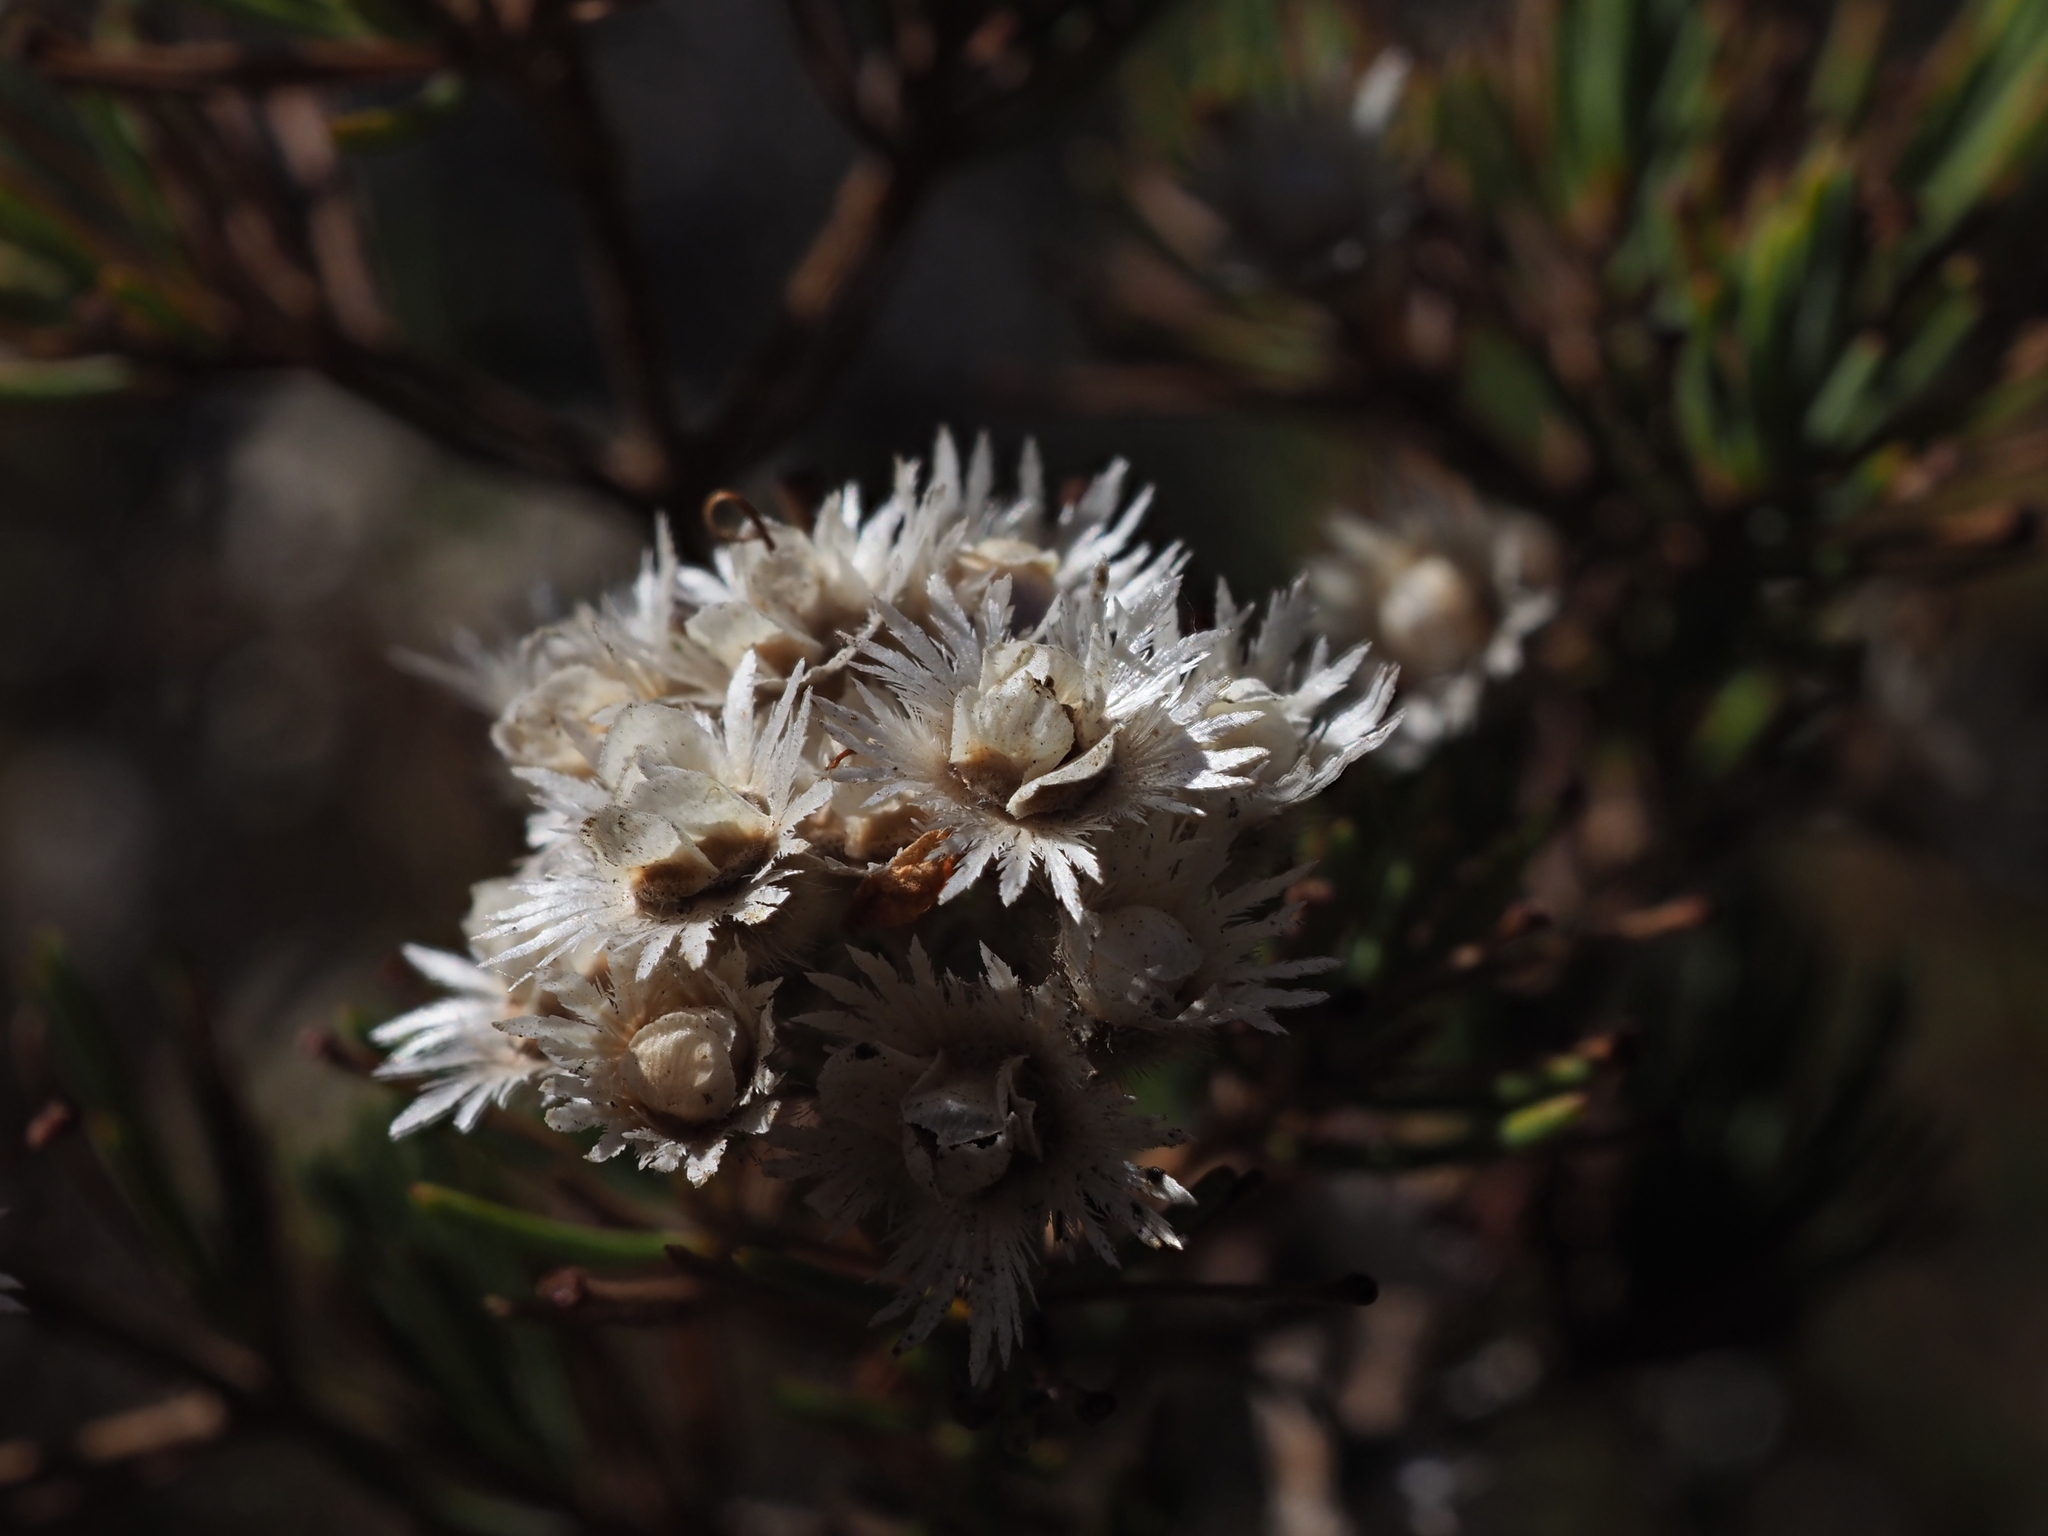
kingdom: Plantae
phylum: Tracheophyta
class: Magnoliopsida
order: Myrtales
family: Myrtaceae
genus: Verticordia
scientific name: Verticordia plumosa
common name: Plume feather-flower
